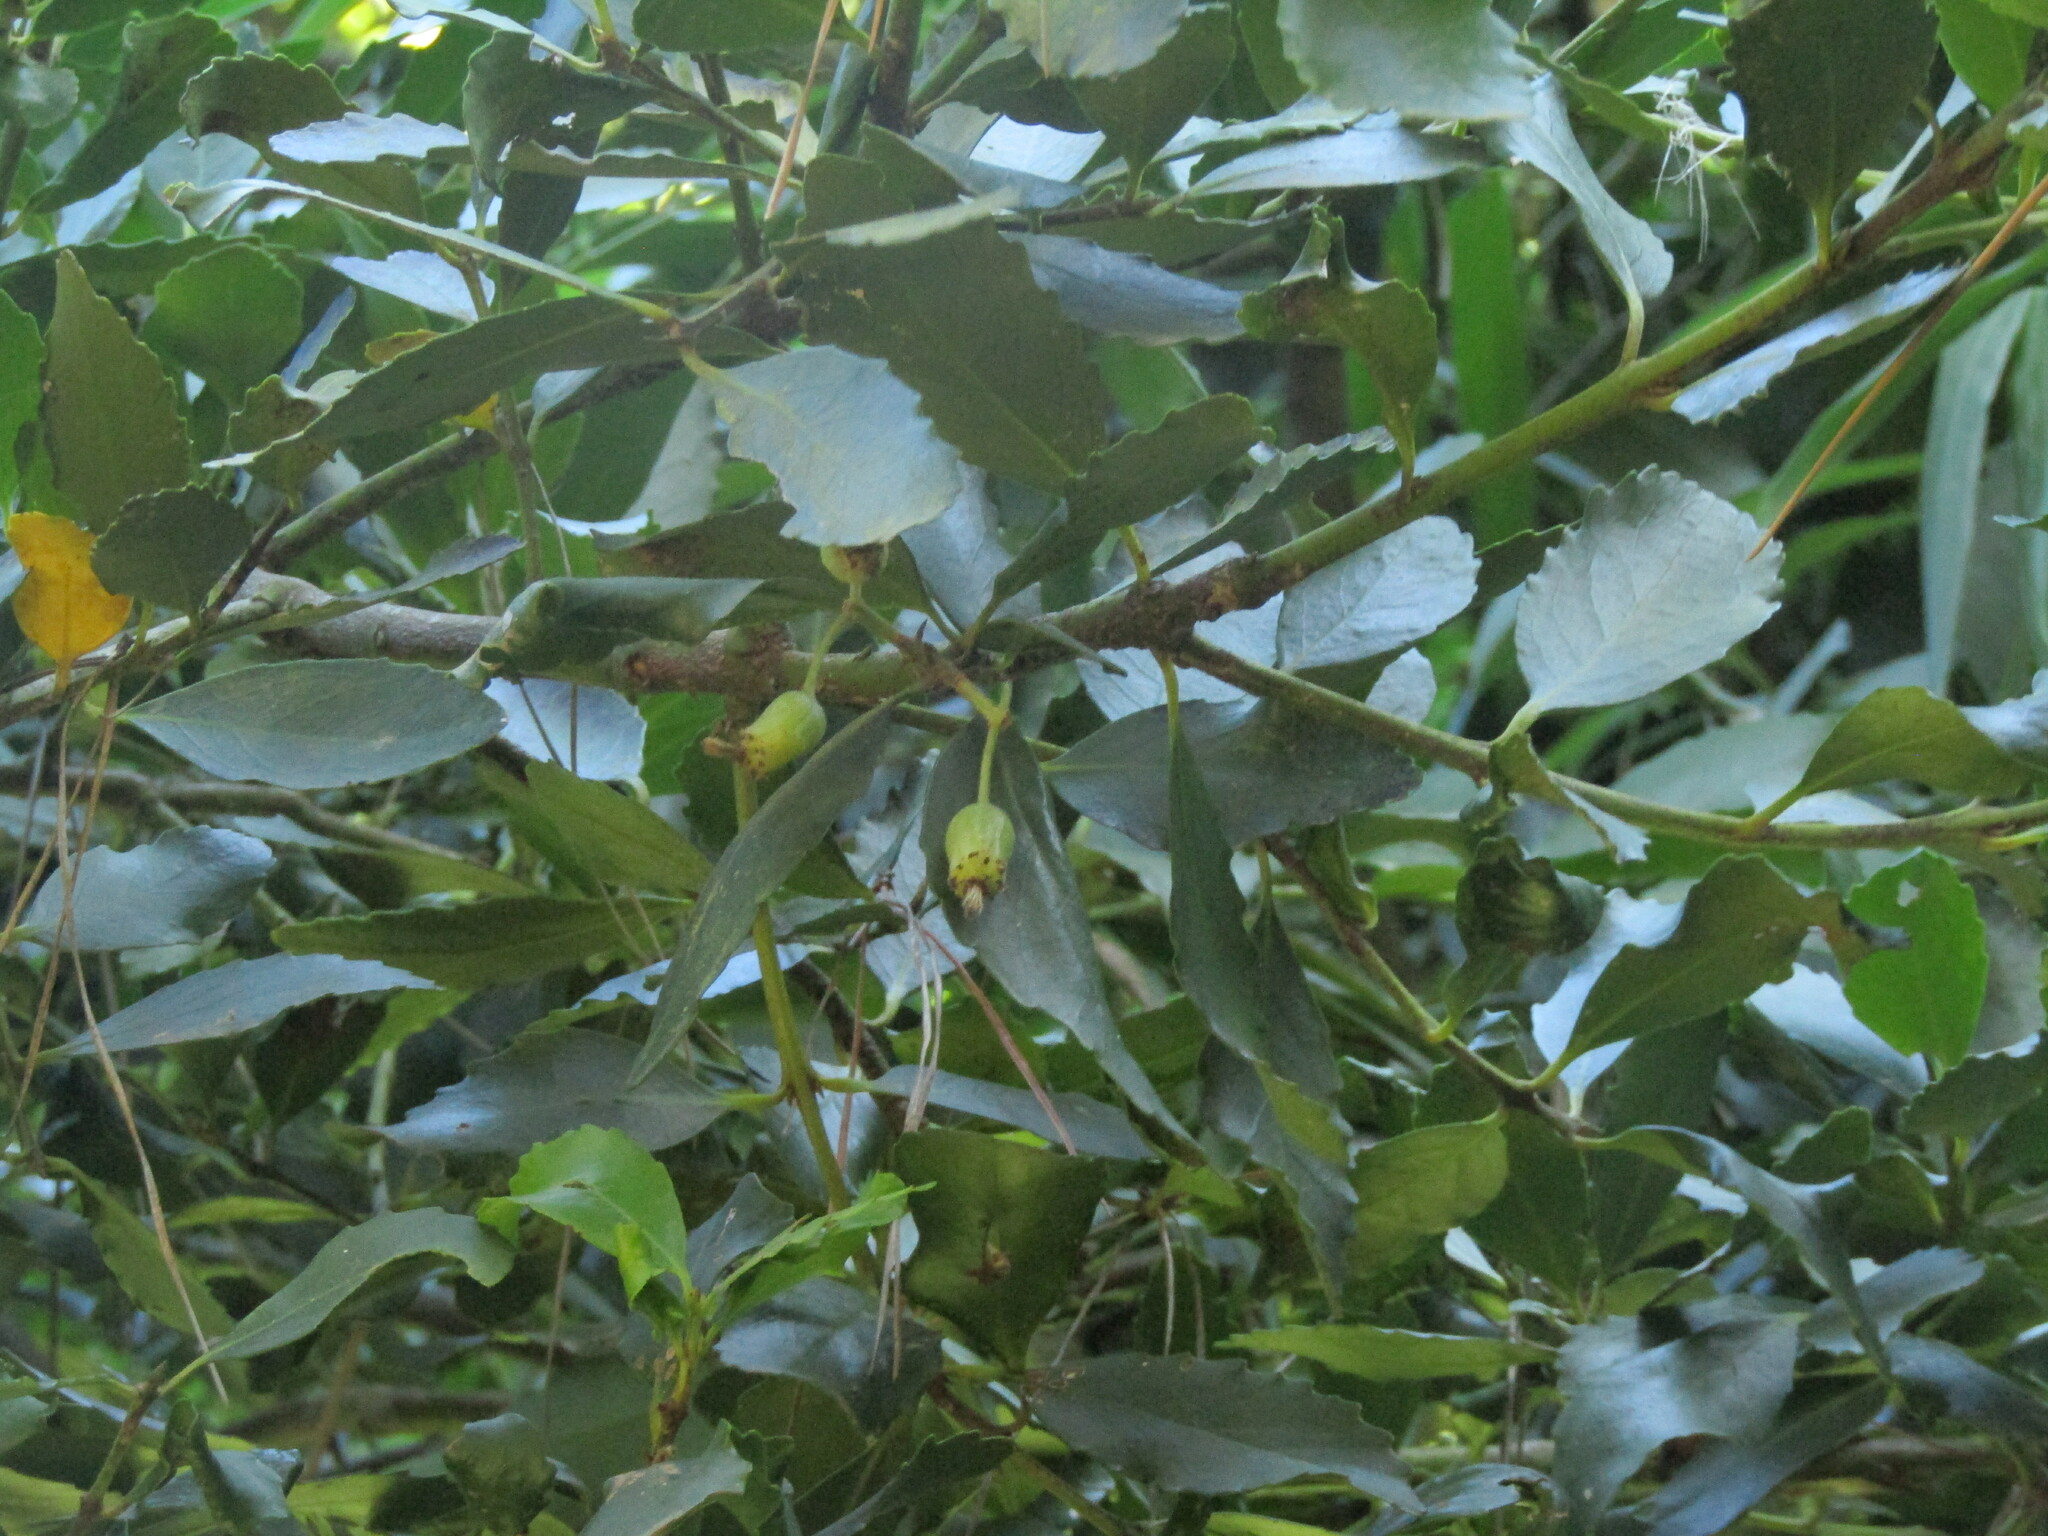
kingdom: Plantae
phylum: Tracheophyta
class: Magnoliopsida
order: Laurales
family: Atherospermataceae
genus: Laurelia
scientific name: Laurelia sempervirens
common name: Chilean laurel
